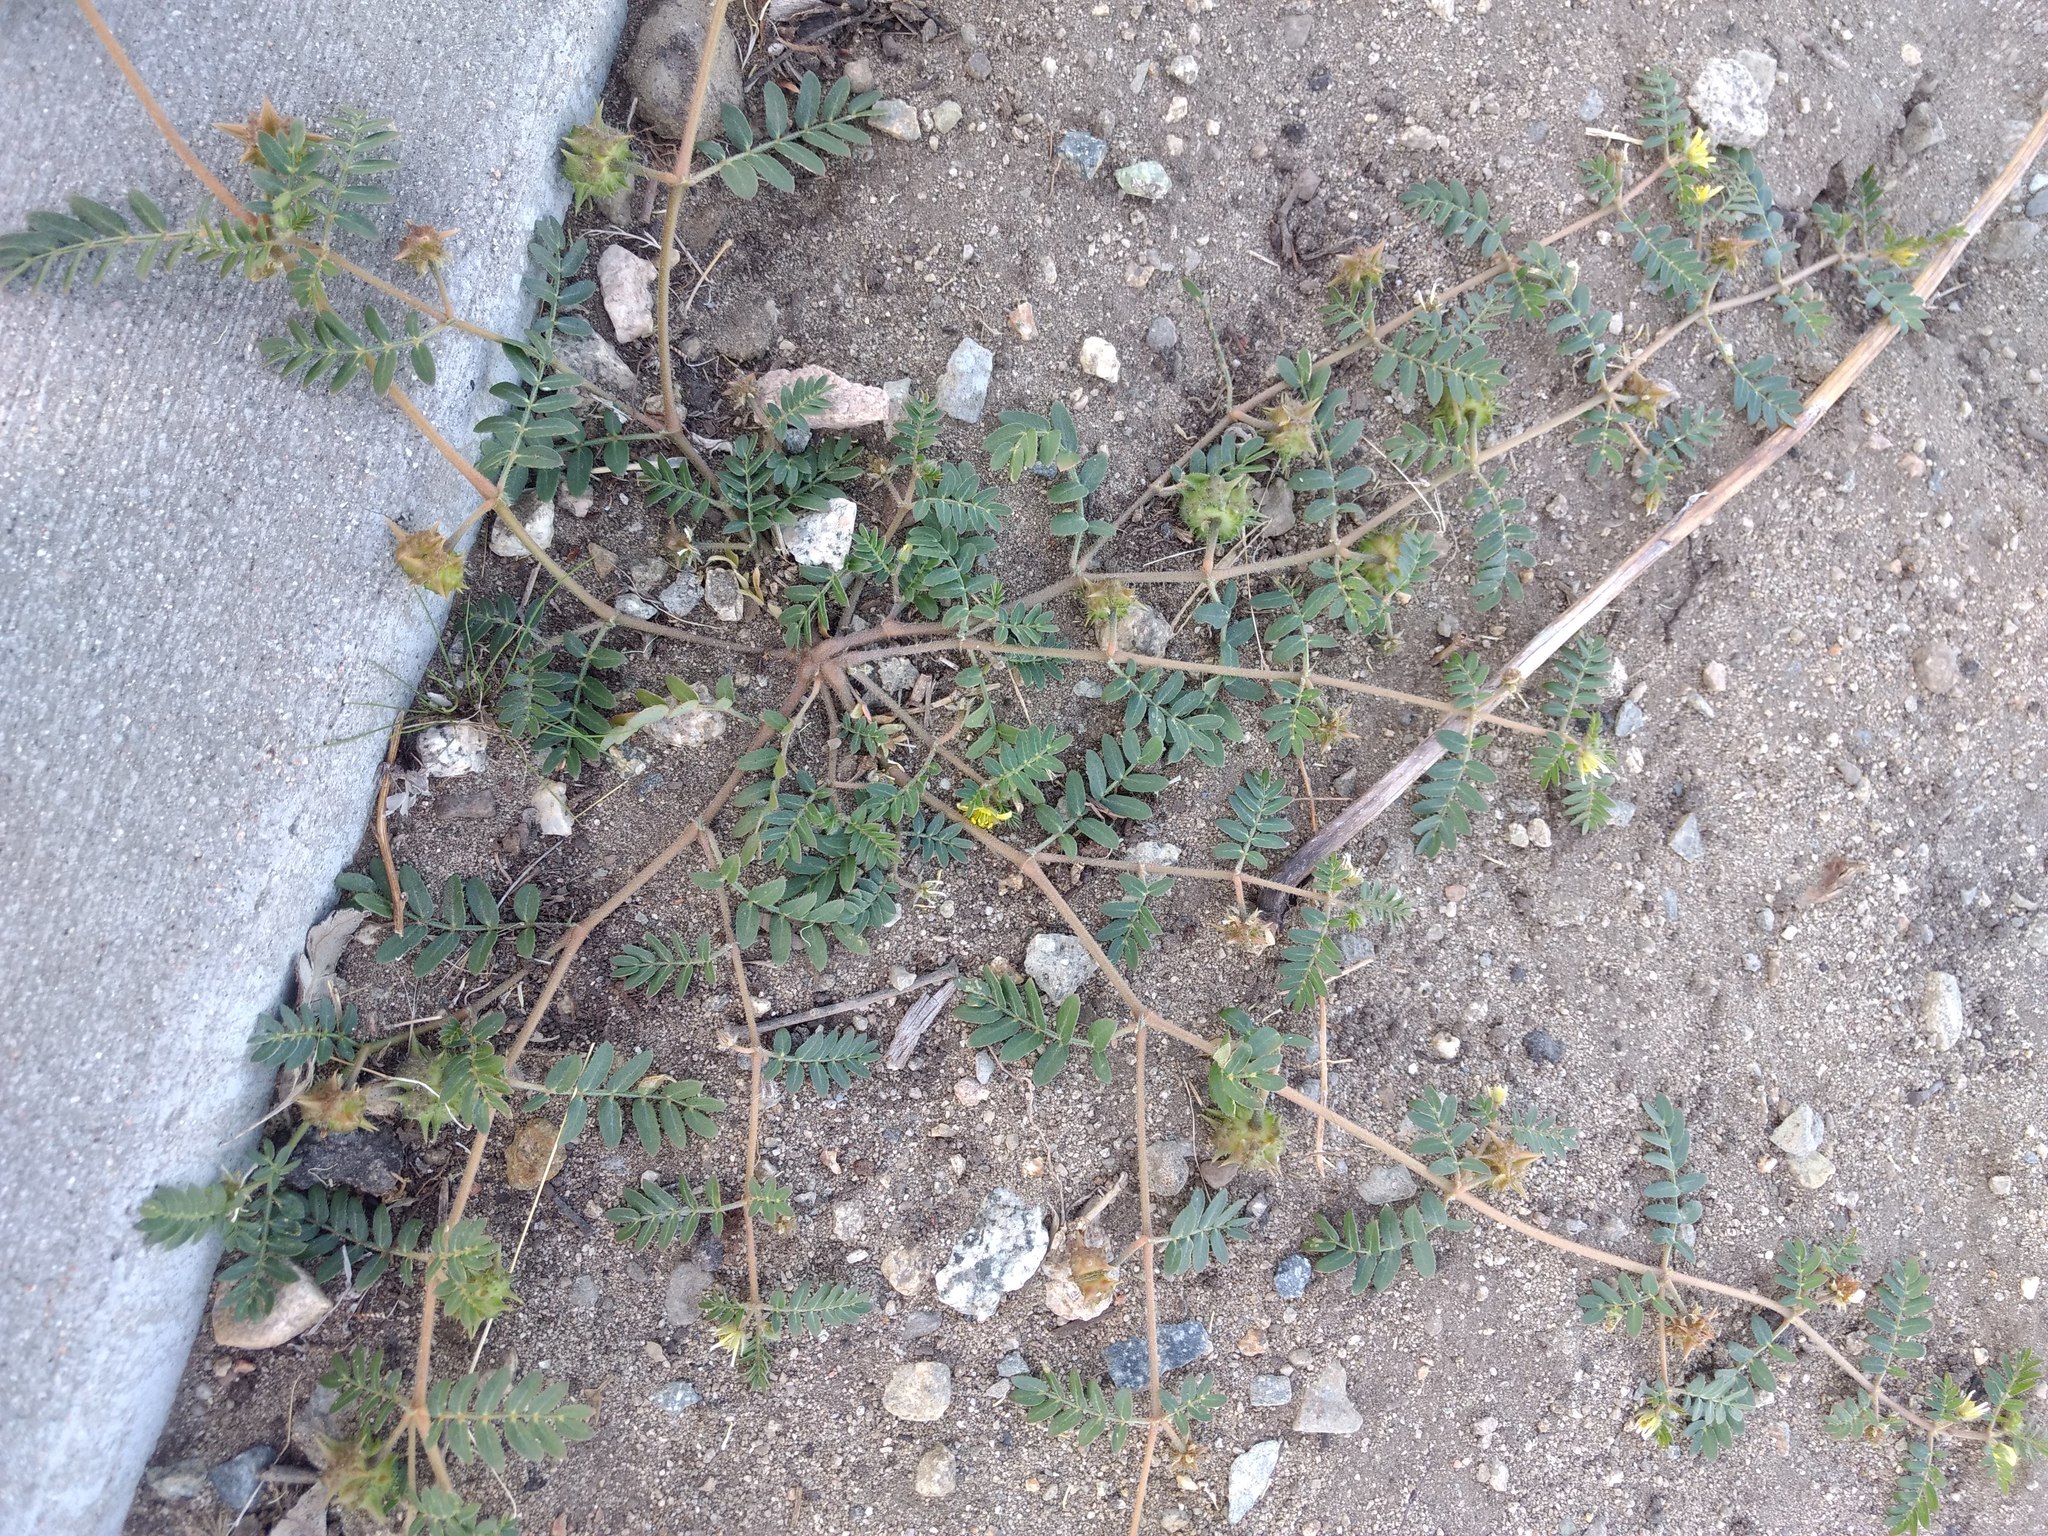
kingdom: Plantae
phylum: Tracheophyta
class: Magnoliopsida
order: Zygophyllales
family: Zygophyllaceae
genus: Tribulus
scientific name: Tribulus terrestris
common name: Puncturevine
